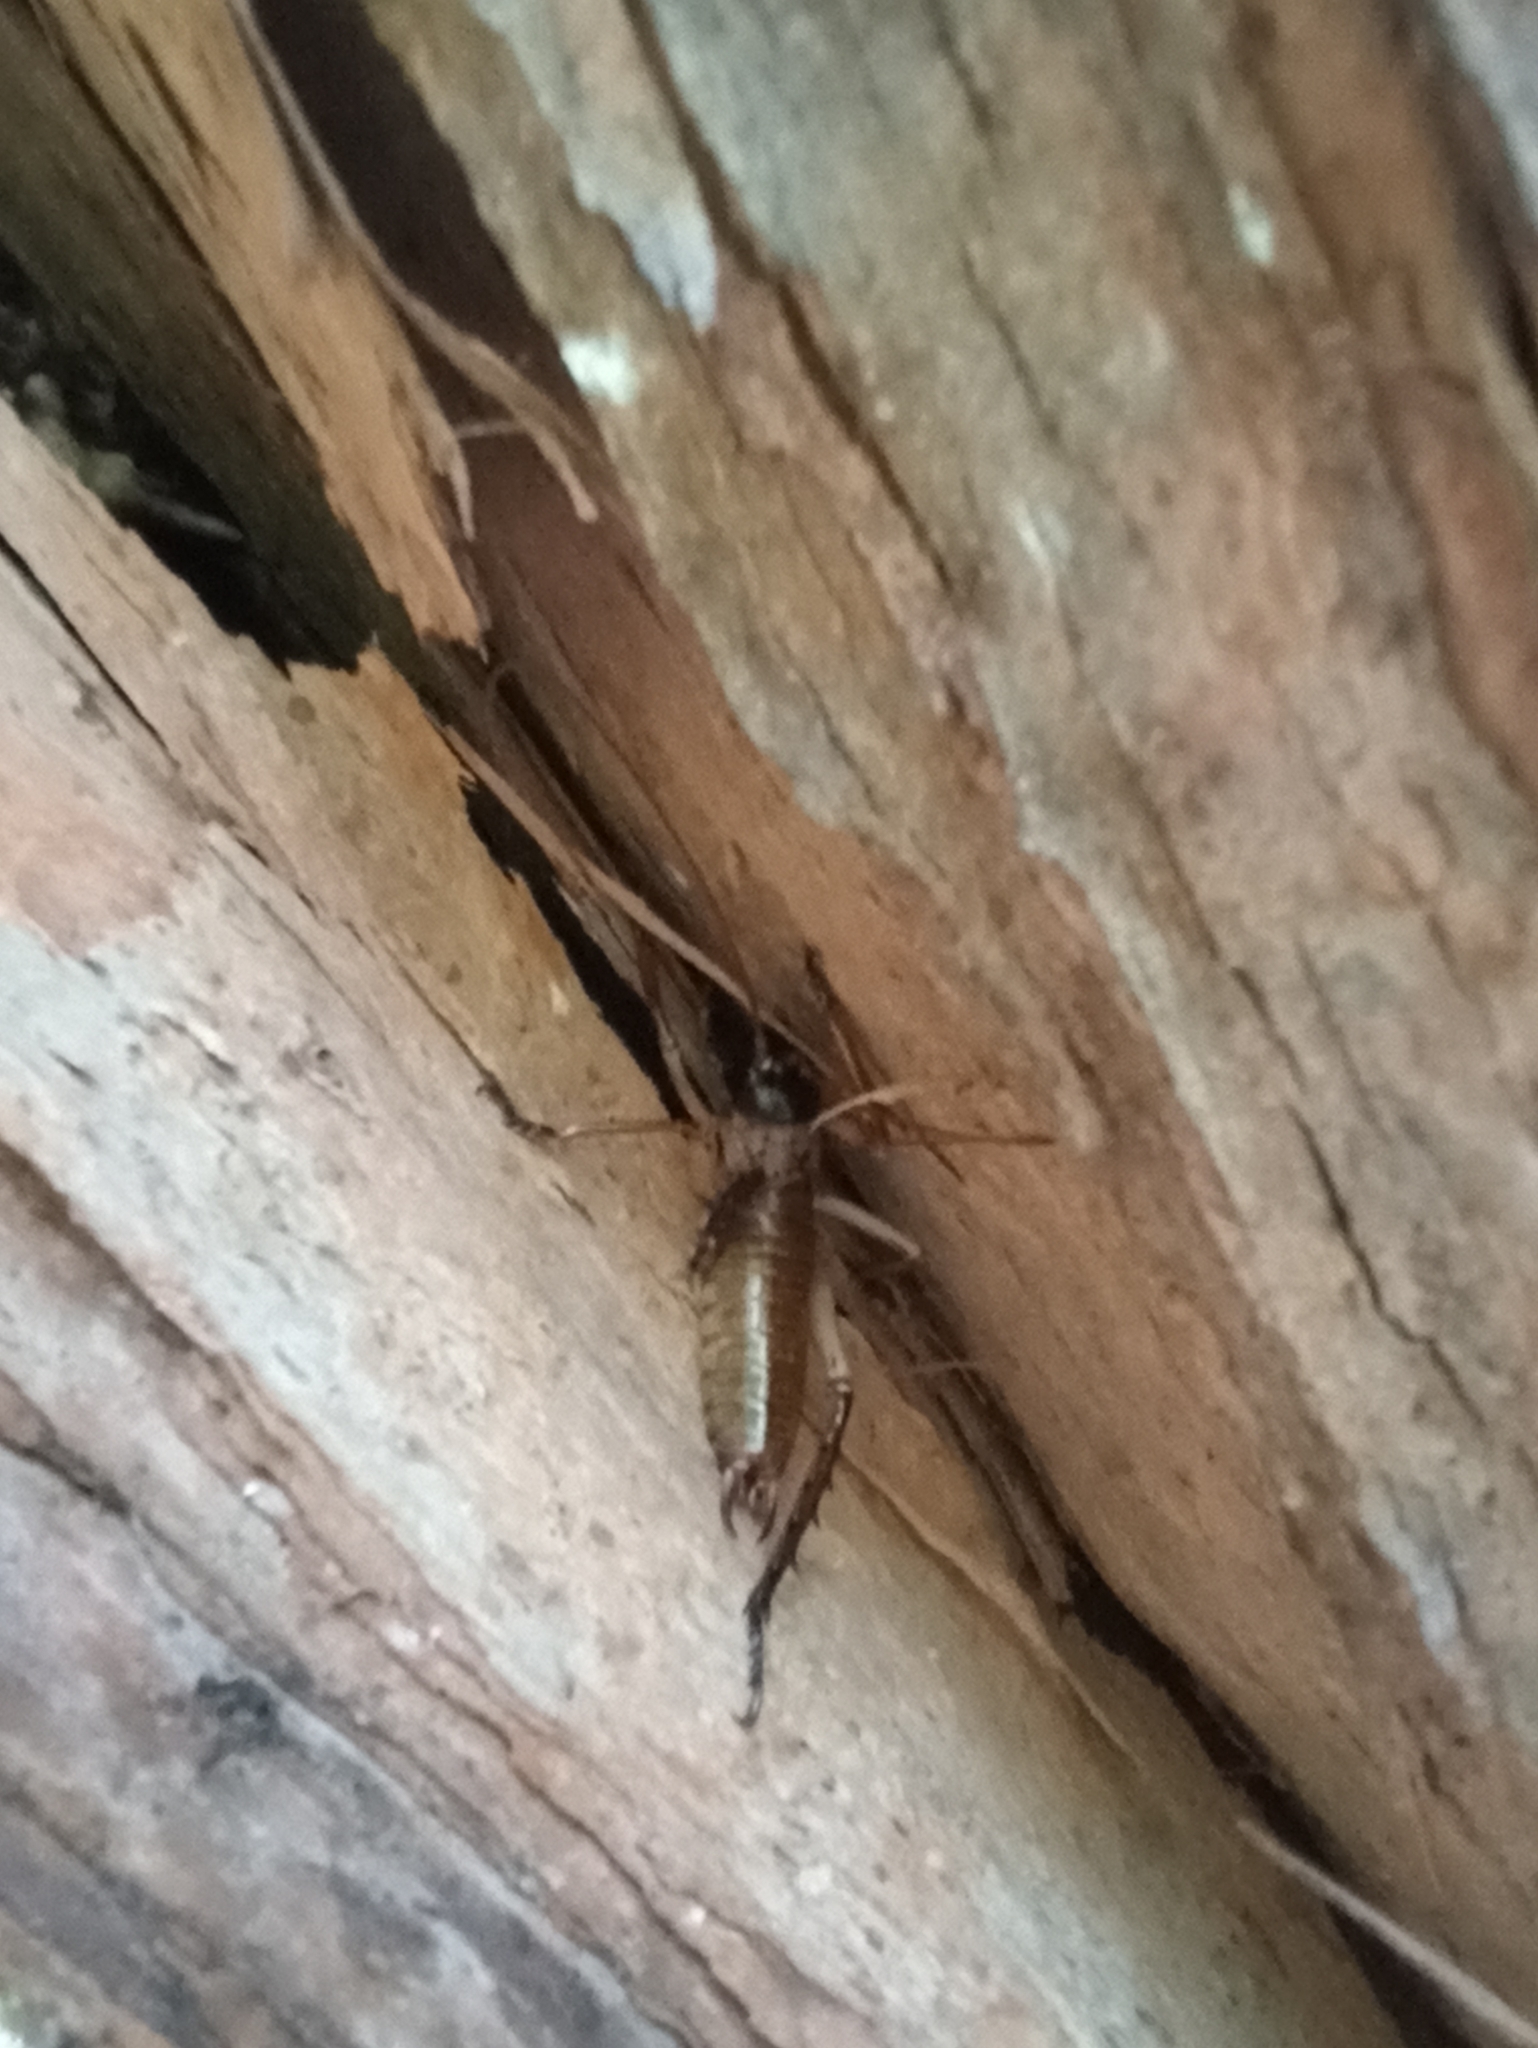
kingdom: Animalia
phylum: Arthropoda
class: Insecta
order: Orthoptera
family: Anostostomatidae
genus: Hemideina
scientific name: Hemideina thoracica
